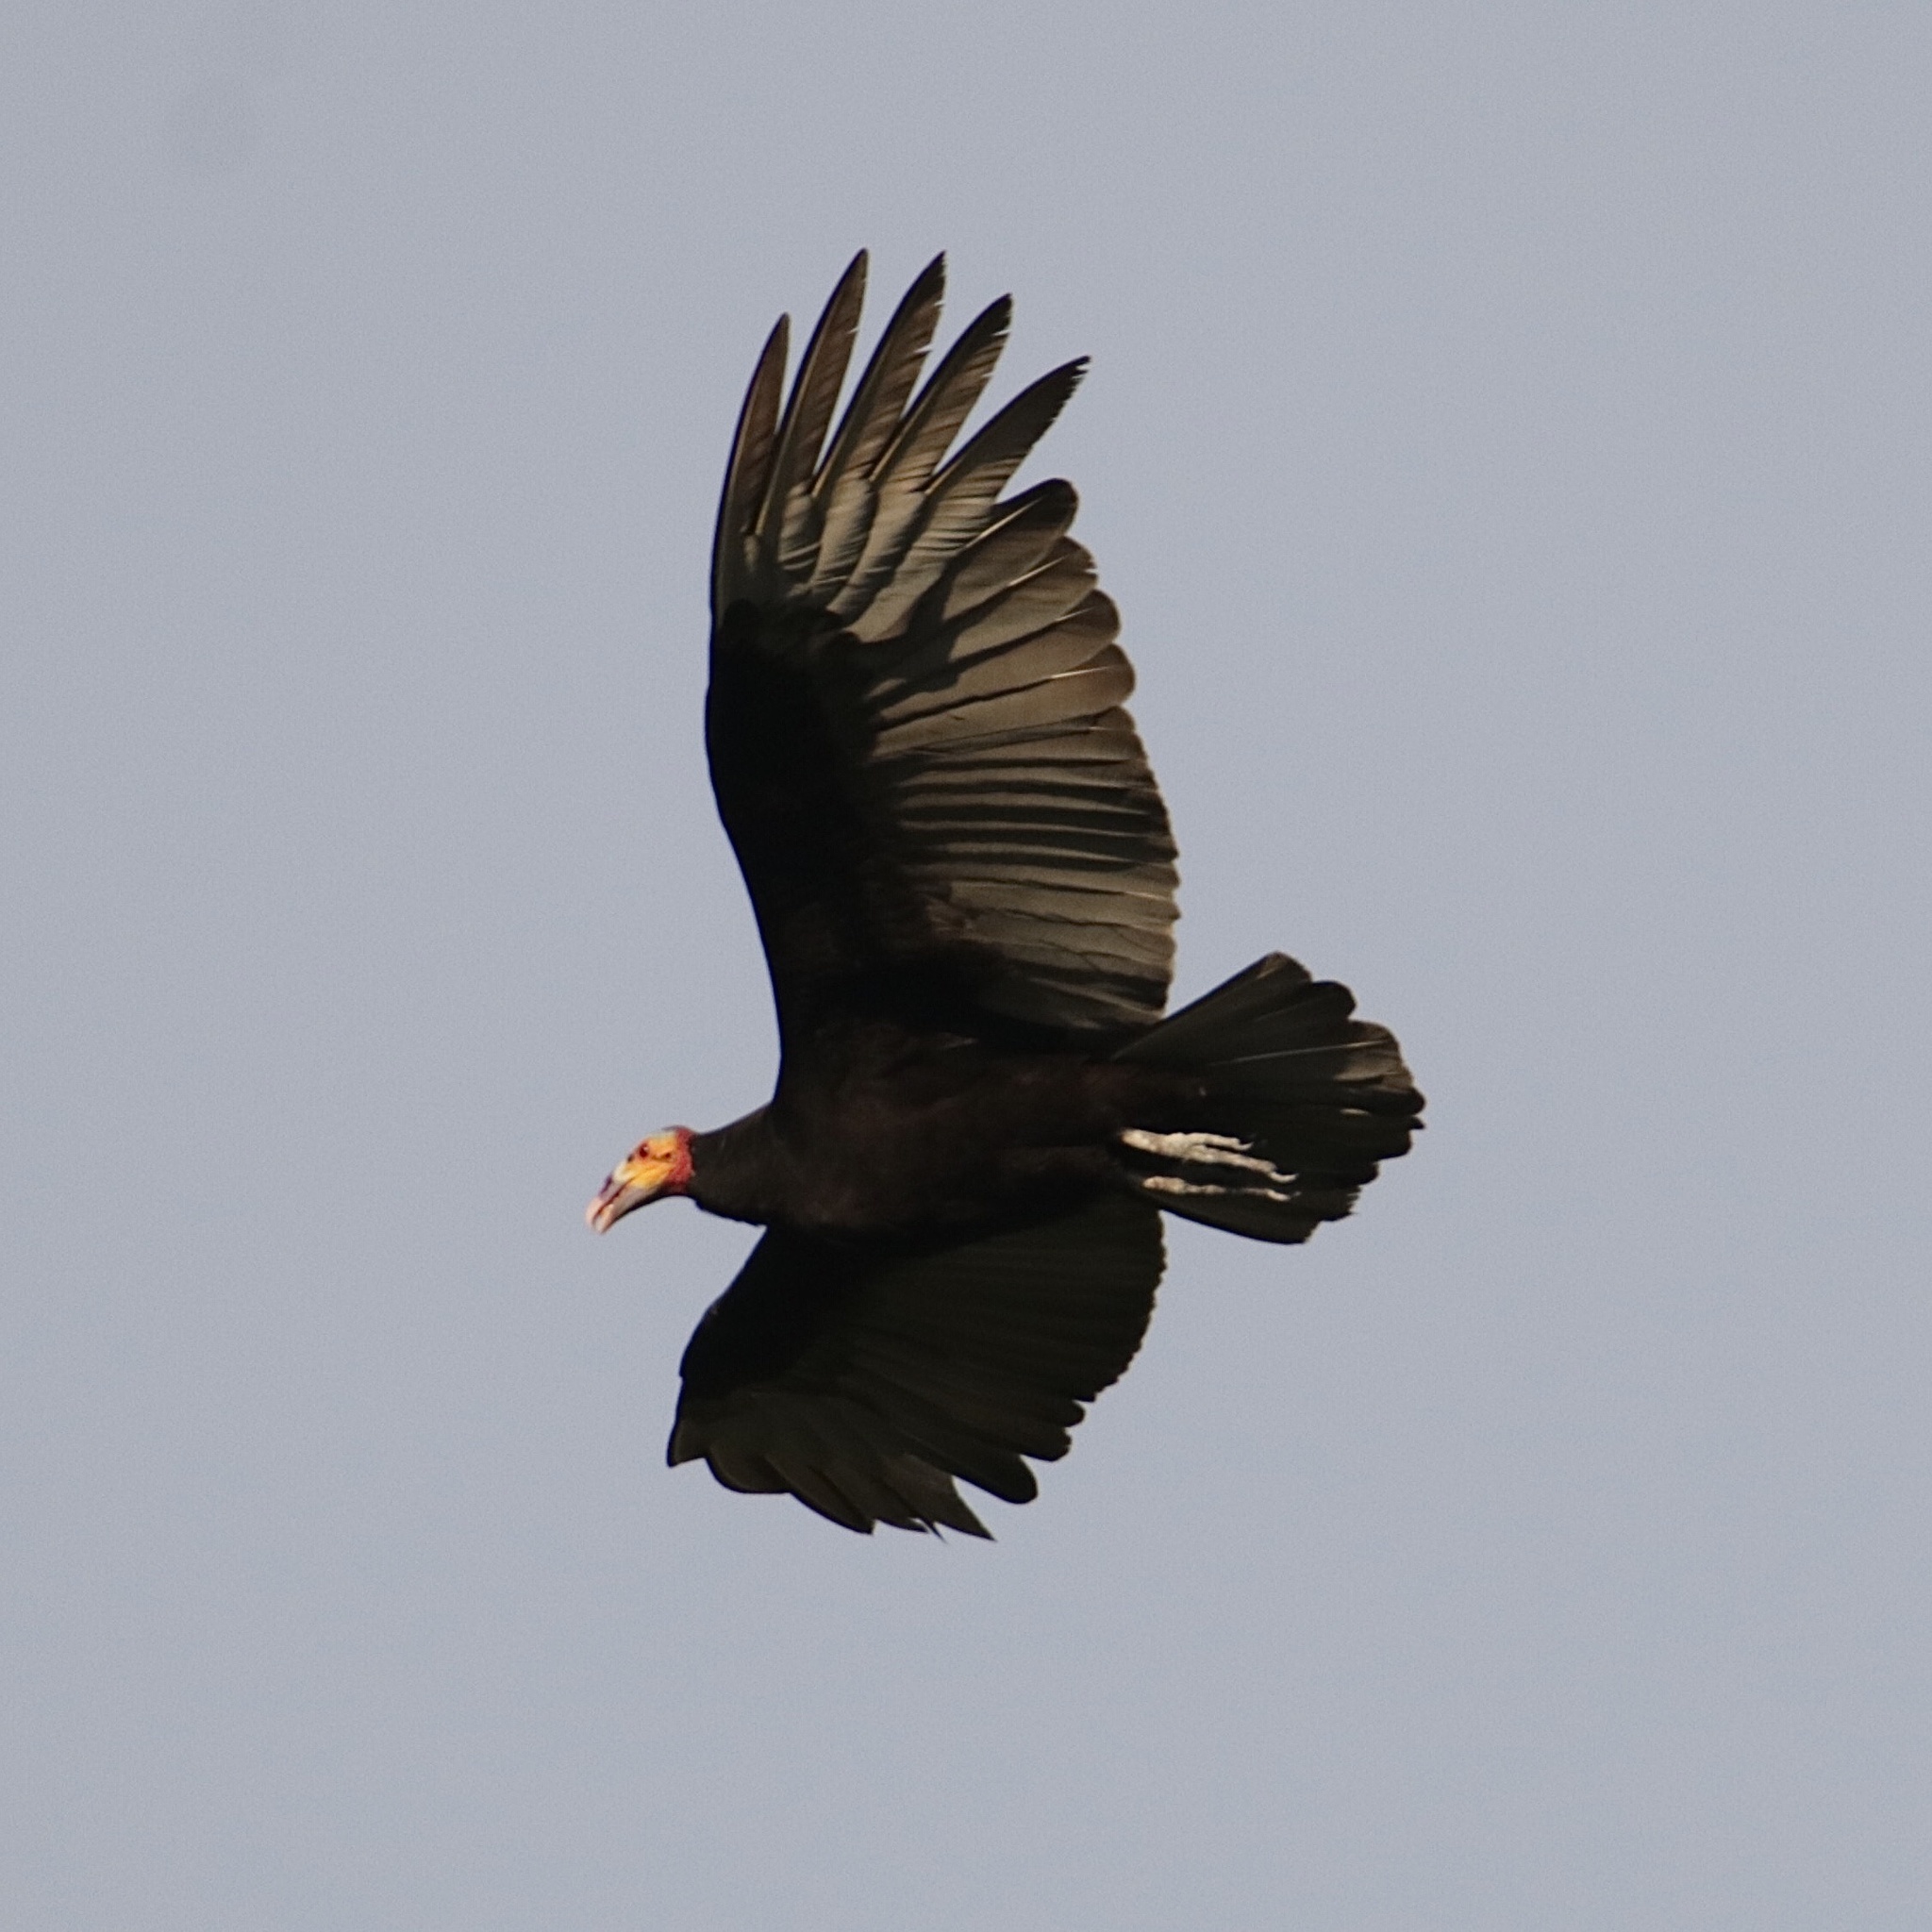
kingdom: Animalia
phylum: Chordata
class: Aves
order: Accipitriformes
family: Cathartidae
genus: Cathartes
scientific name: Cathartes burrovianus
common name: Lesser yellow-headed vulture
